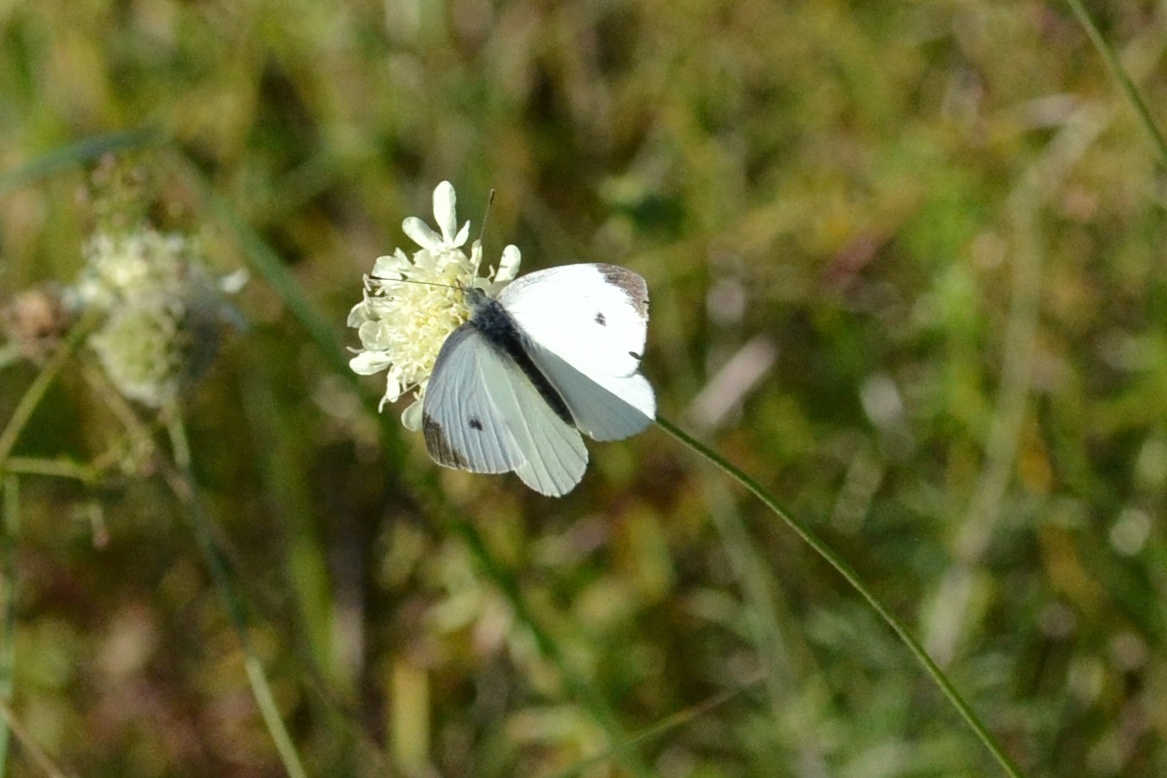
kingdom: Animalia
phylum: Arthropoda
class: Insecta
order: Lepidoptera
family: Pieridae
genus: Pieris
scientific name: Pieris rapae
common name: Small white
